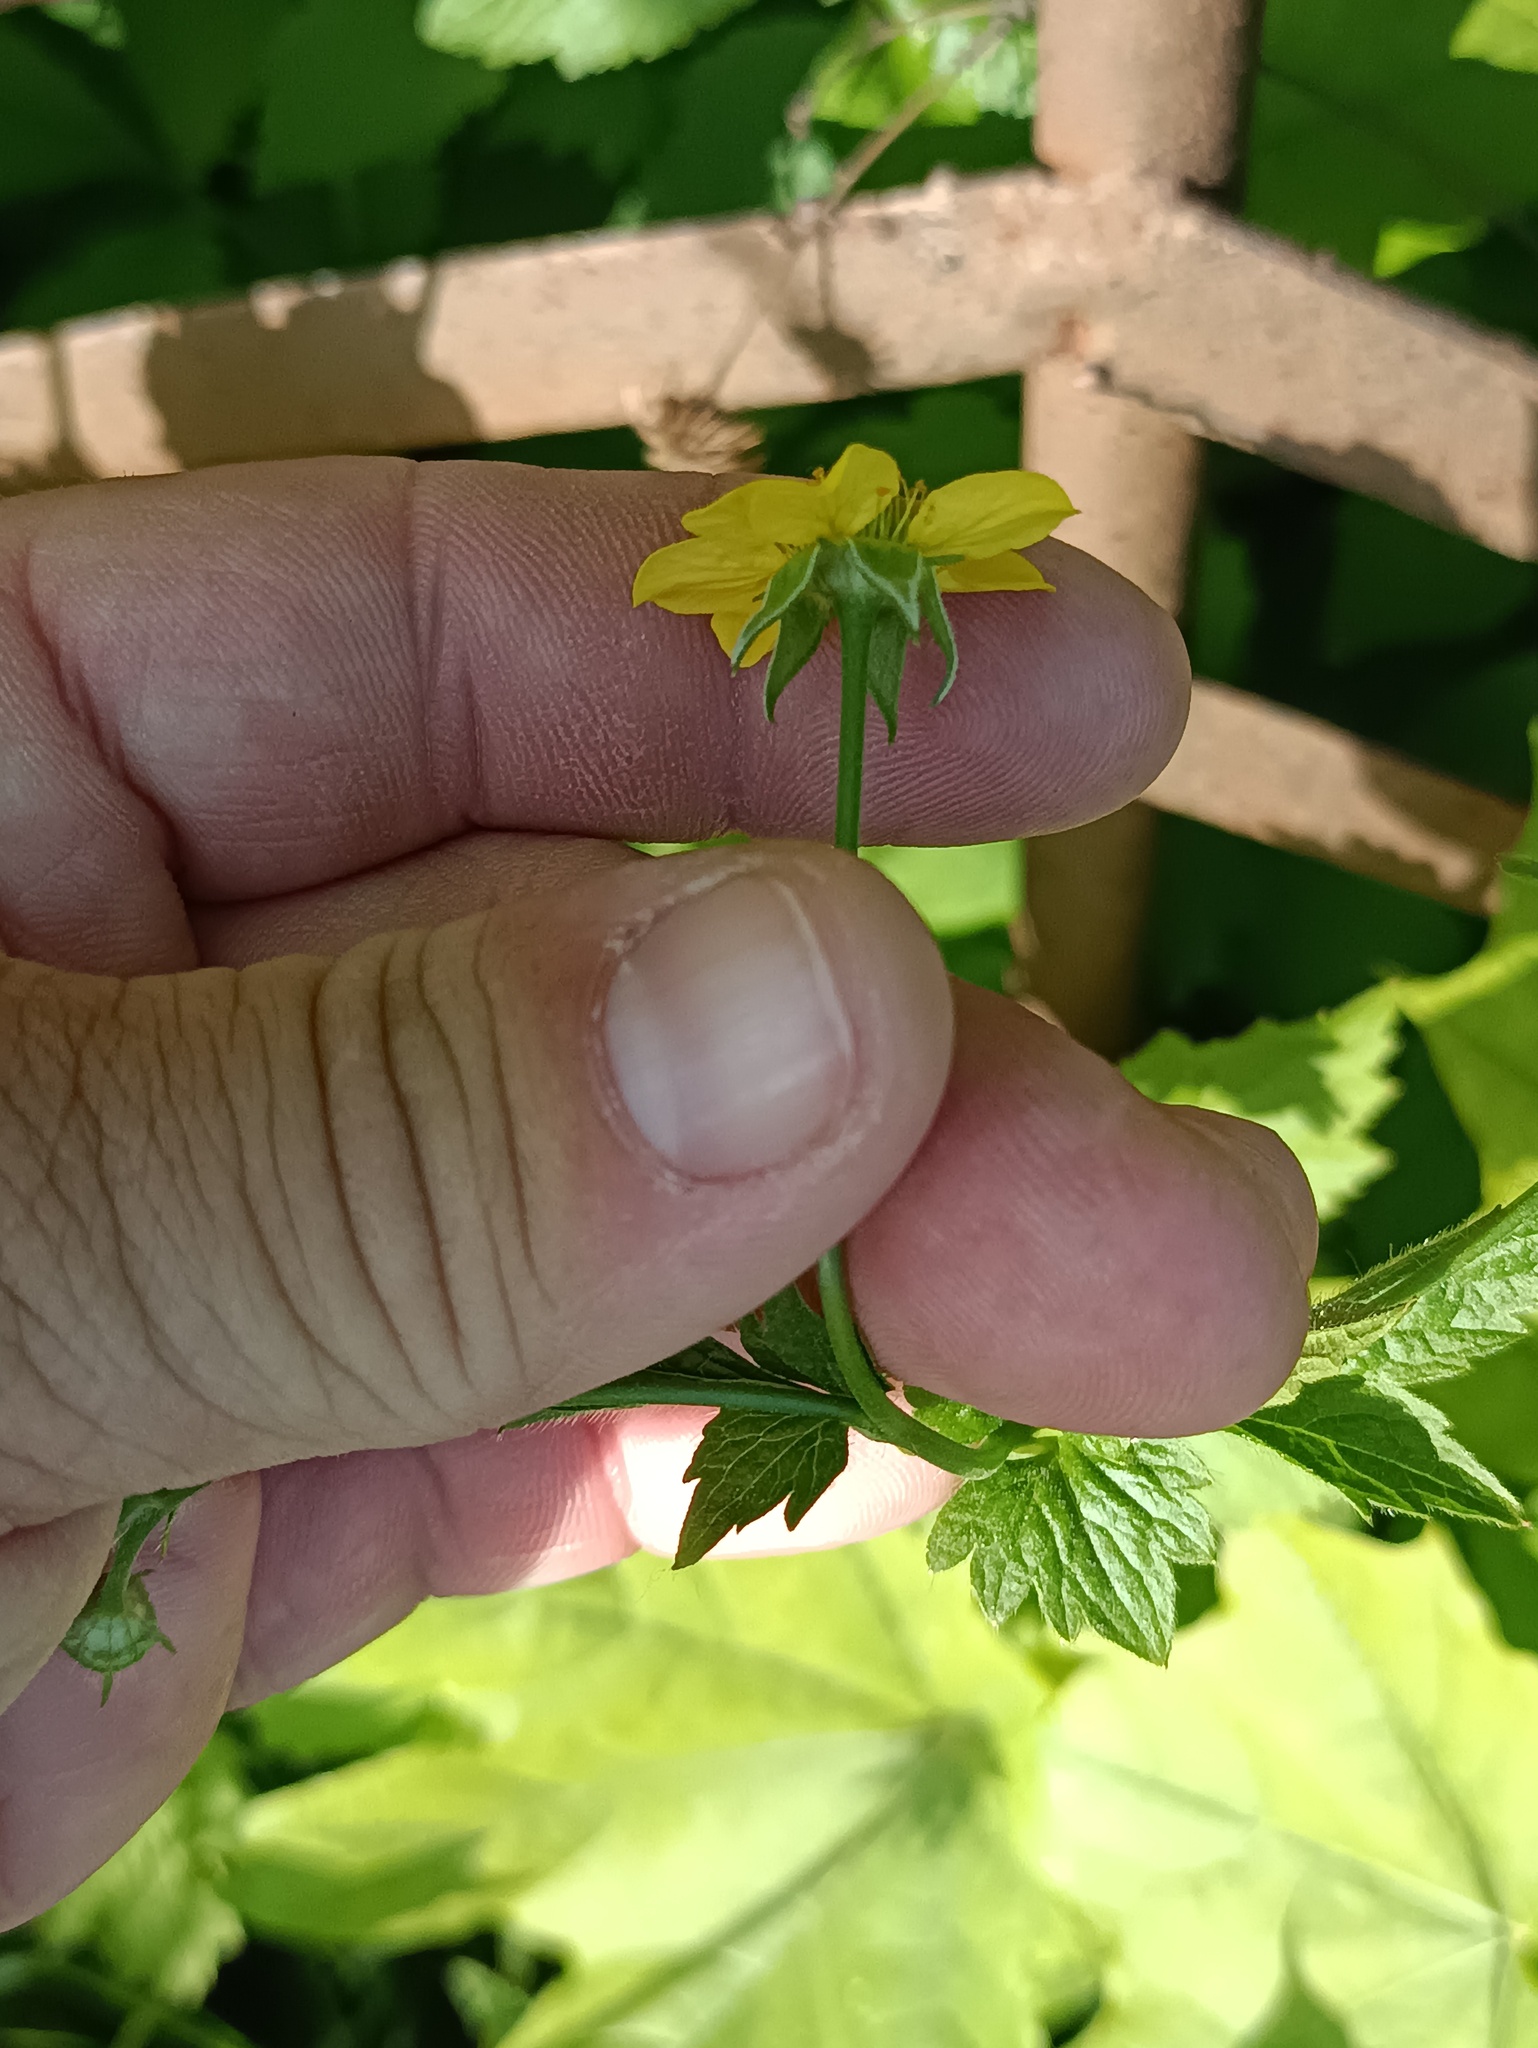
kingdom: Plantae
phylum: Tracheophyta
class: Magnoliopsida
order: Rosales
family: Rosaceae
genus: Geum
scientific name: Geum urbanum
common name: Wood avens
